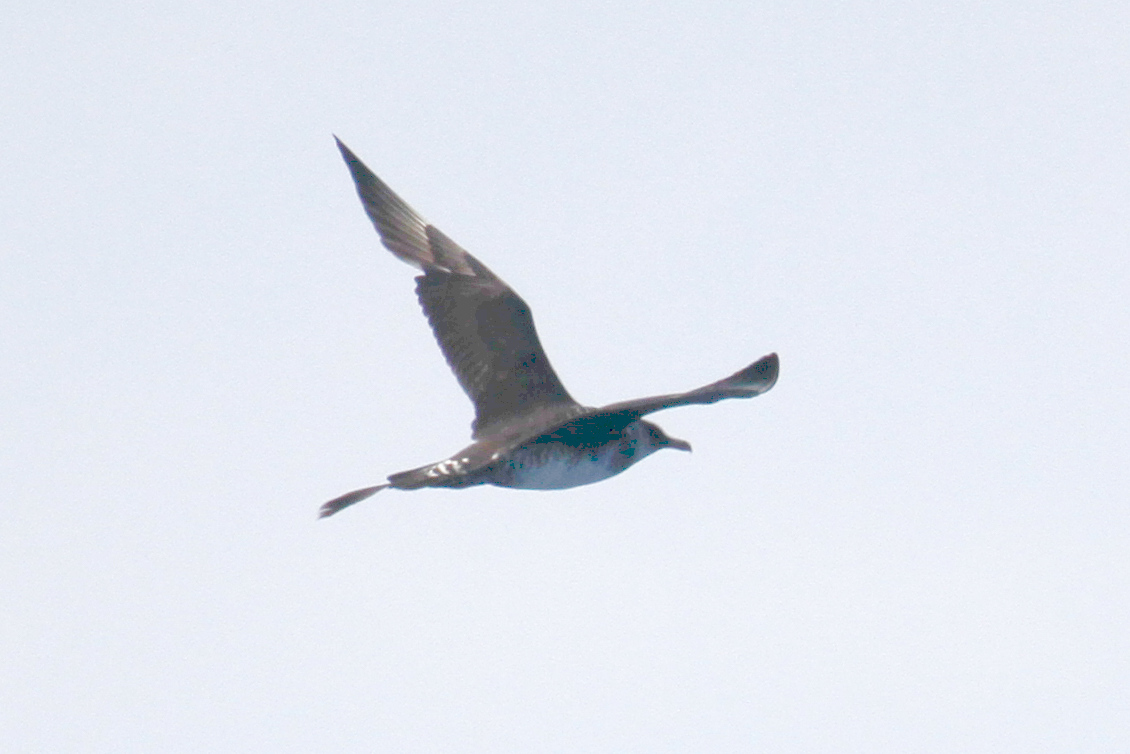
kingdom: Animalia
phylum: Chordata
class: Aves
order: Charadriiformes
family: Stercorariidae
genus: Stercorarius
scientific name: Stercorarius pomarinus
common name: Pomarine jaeger
